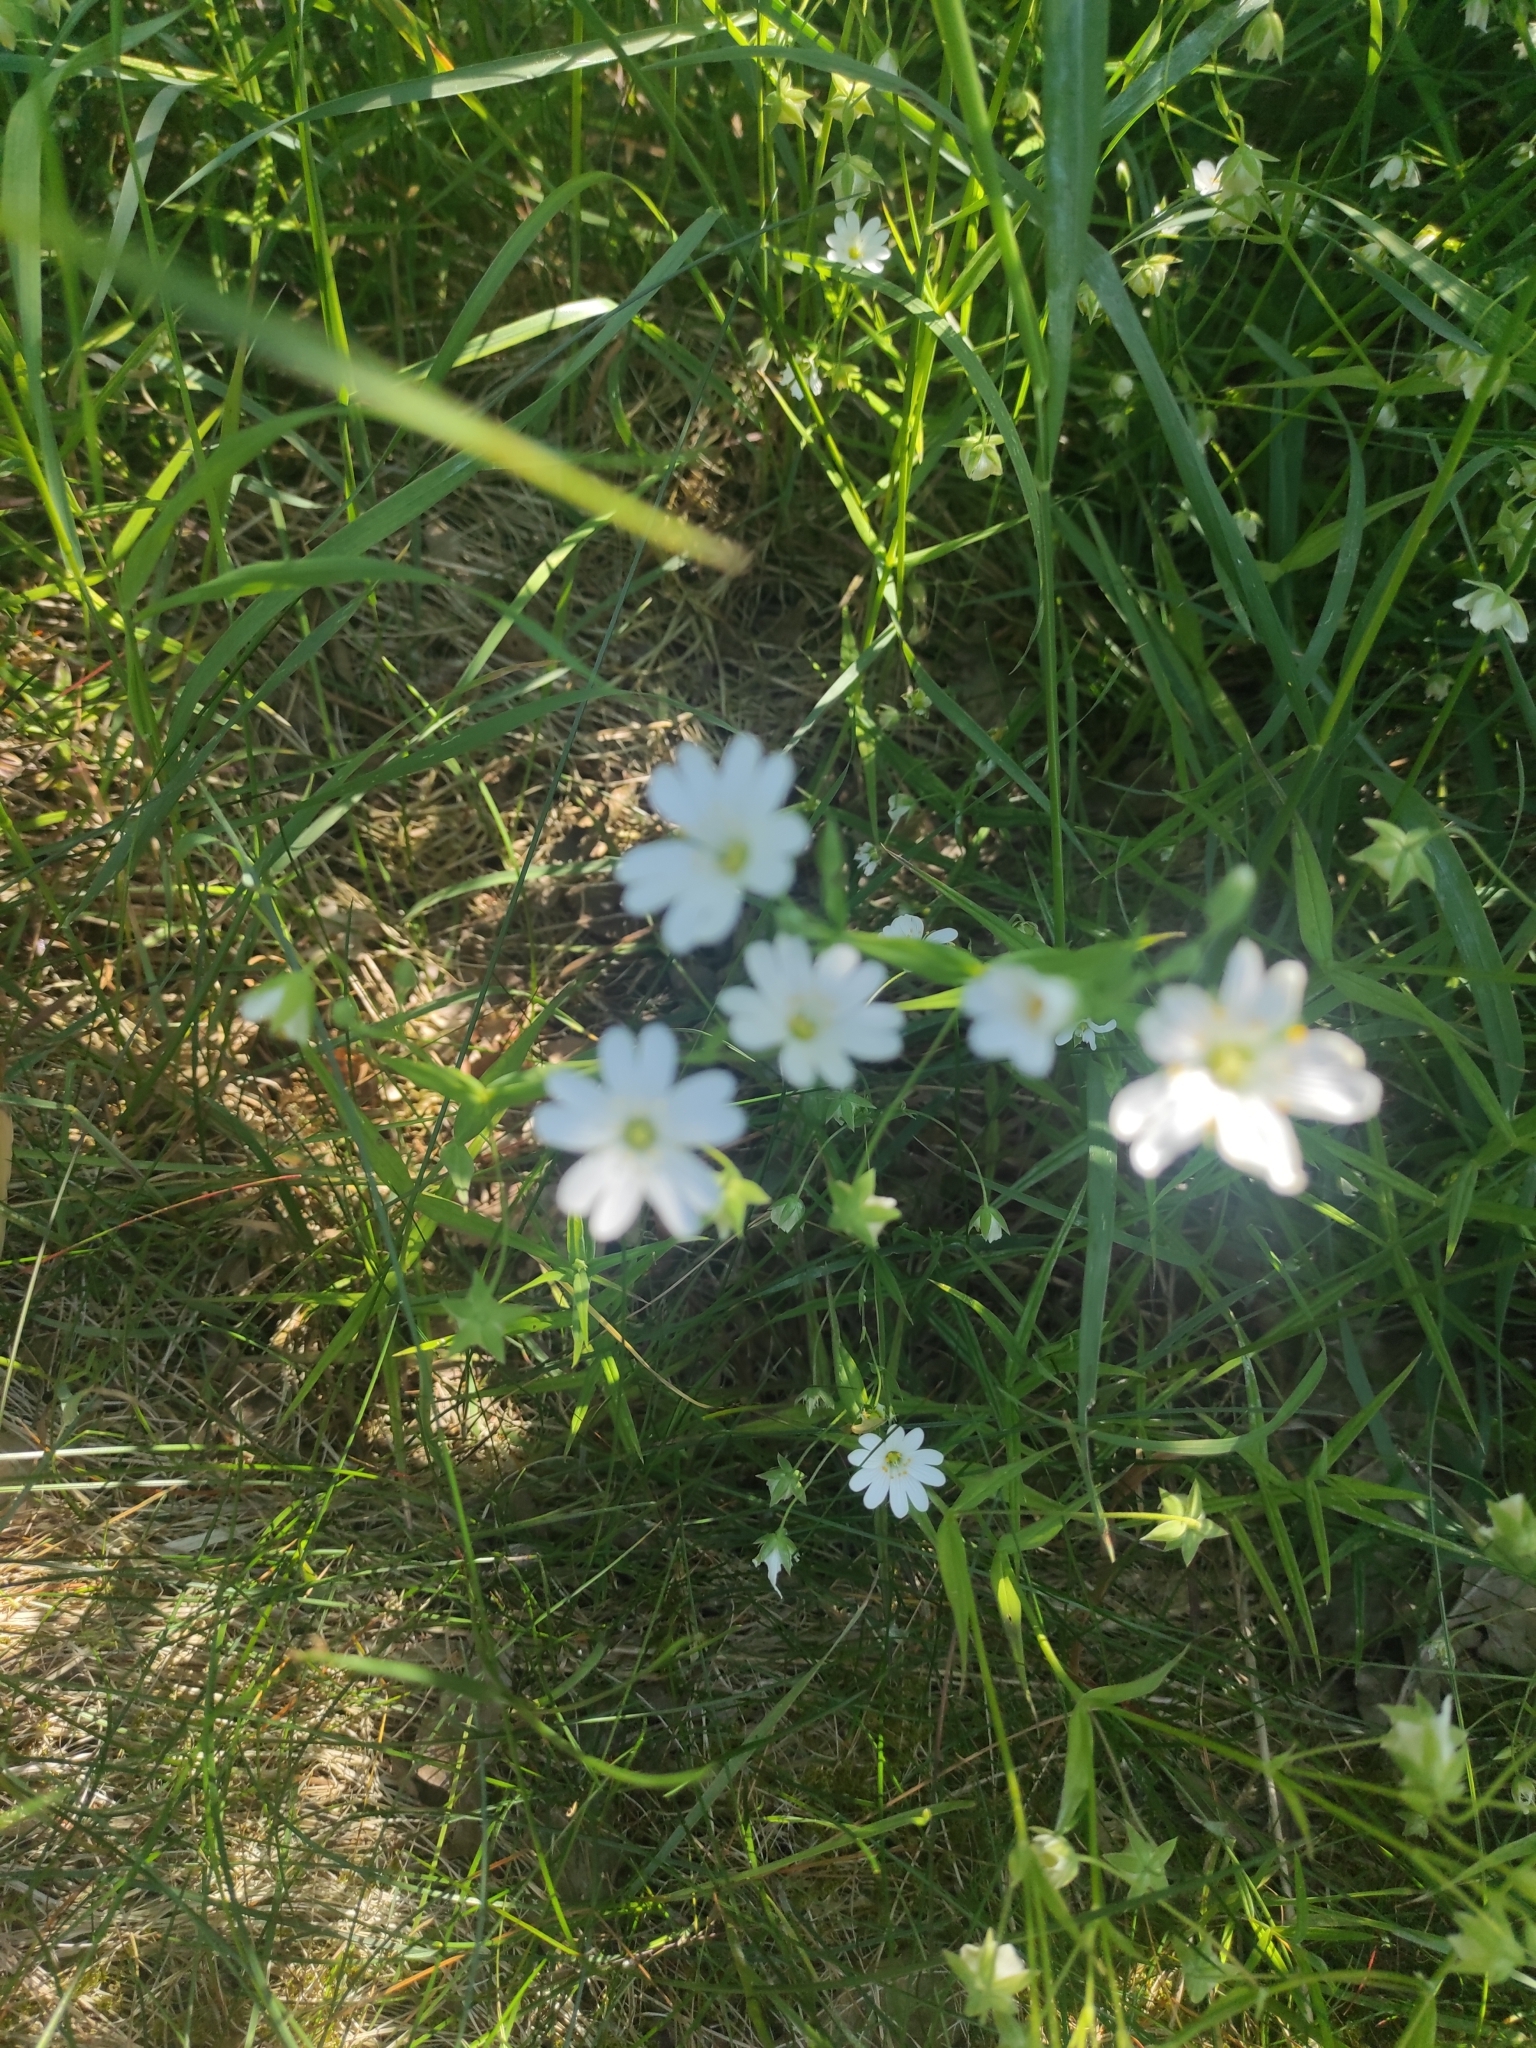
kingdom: Plantae
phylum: Tracheophyta
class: Magnoliopsida
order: Caryophyllales
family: Caryophyllaceae
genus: Rabelera
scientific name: Rabelera holostea
